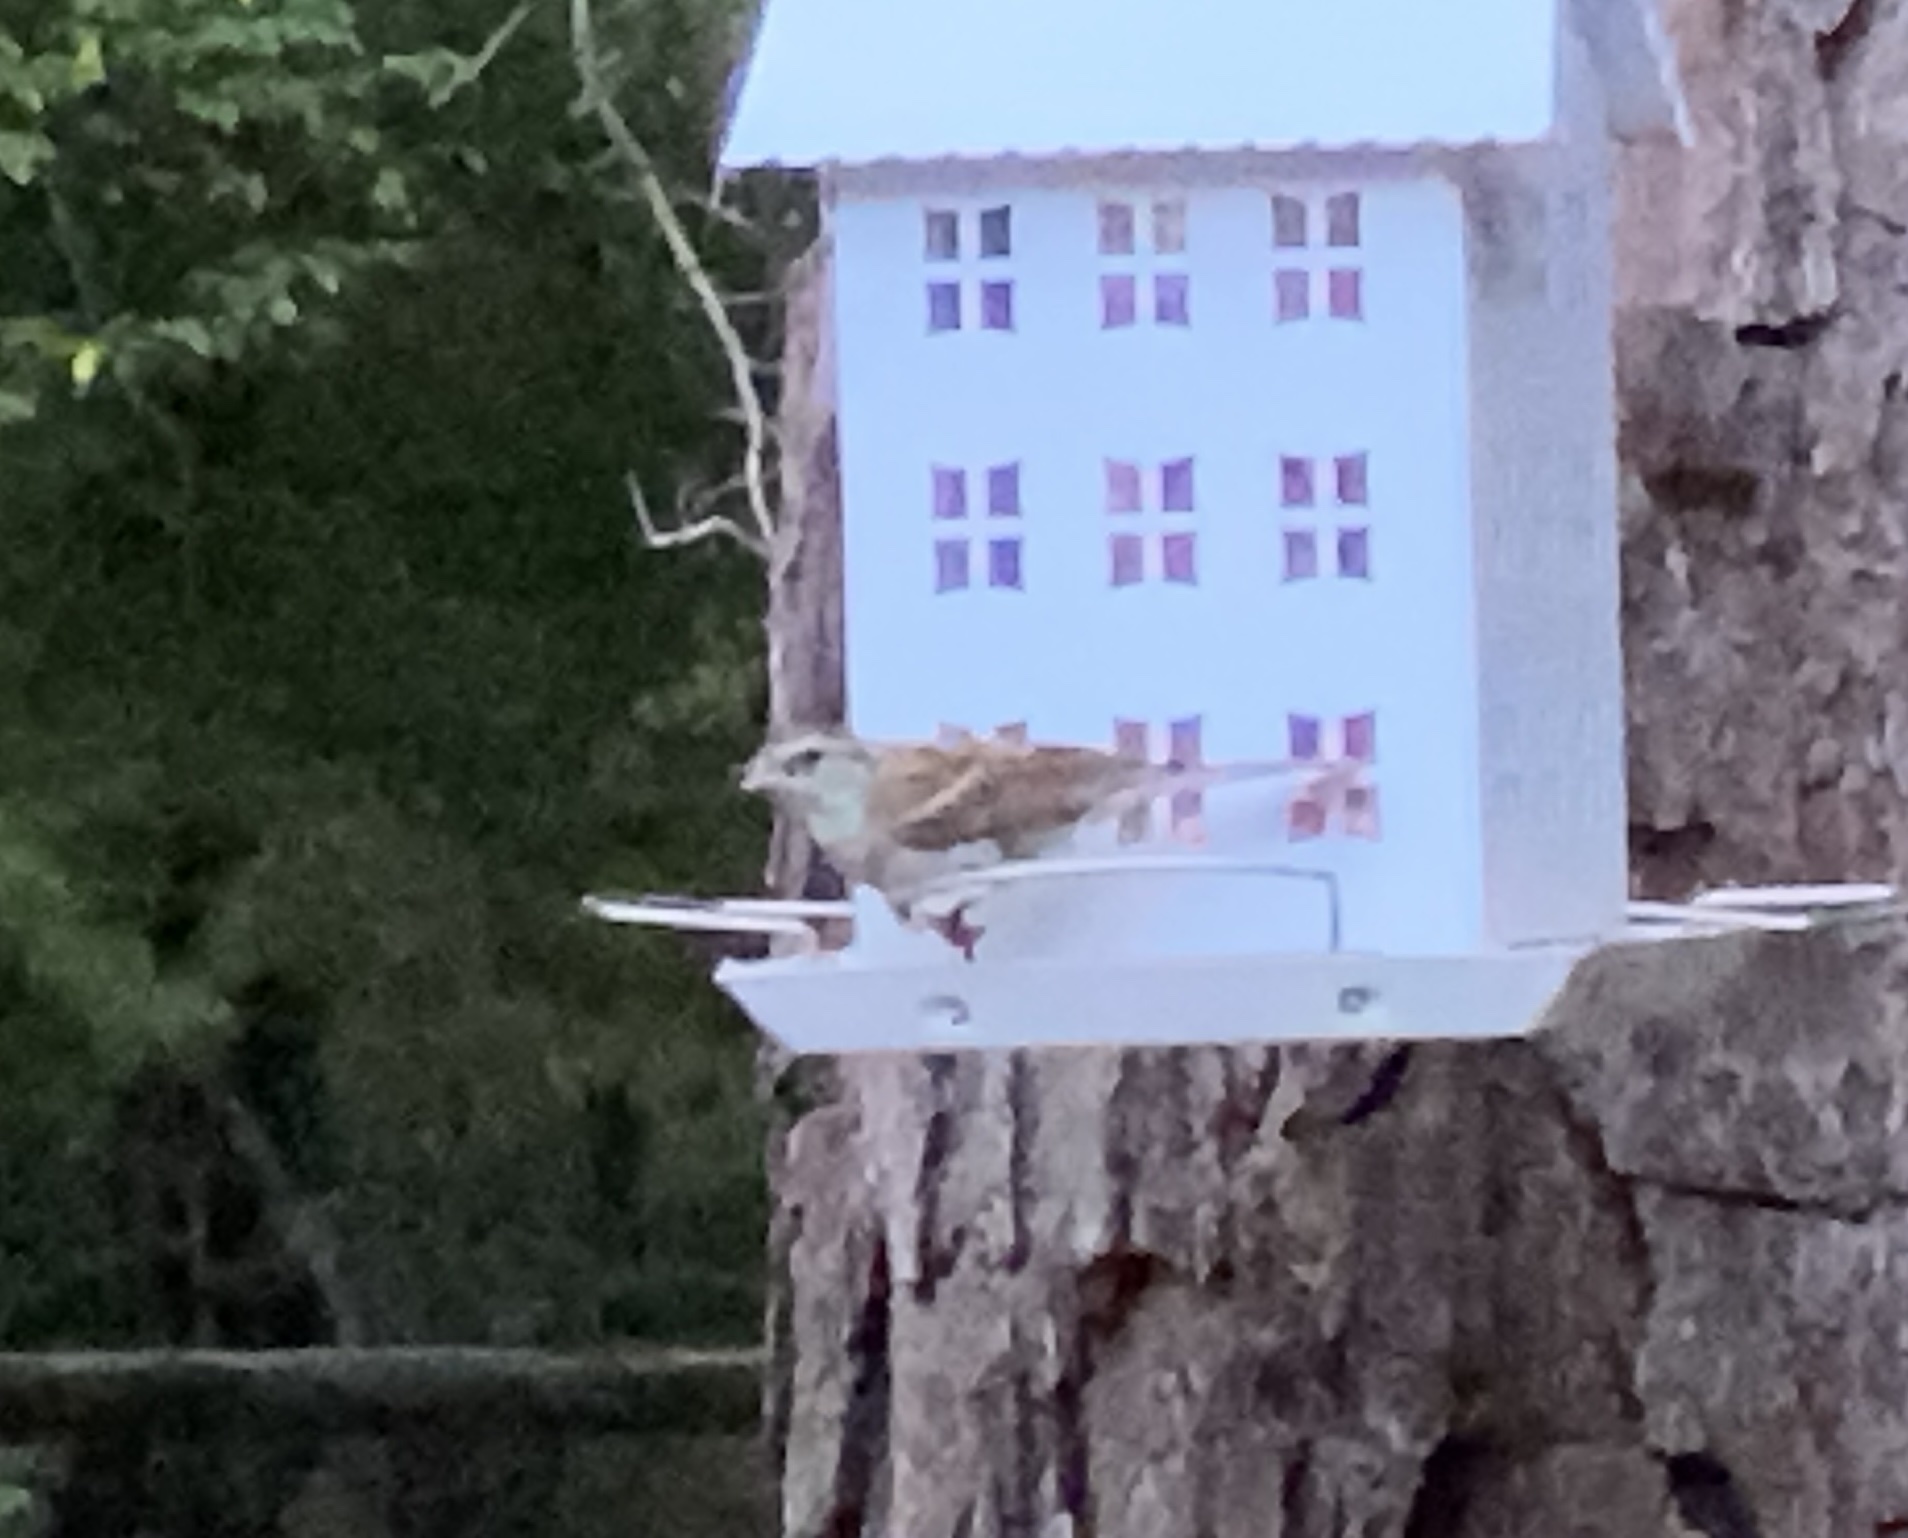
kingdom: Animalia
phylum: Chordata
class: Aves
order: Passeriformes
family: Passerellidae
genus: Spizella
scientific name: Spizella passerina
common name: Chipping sparrow
